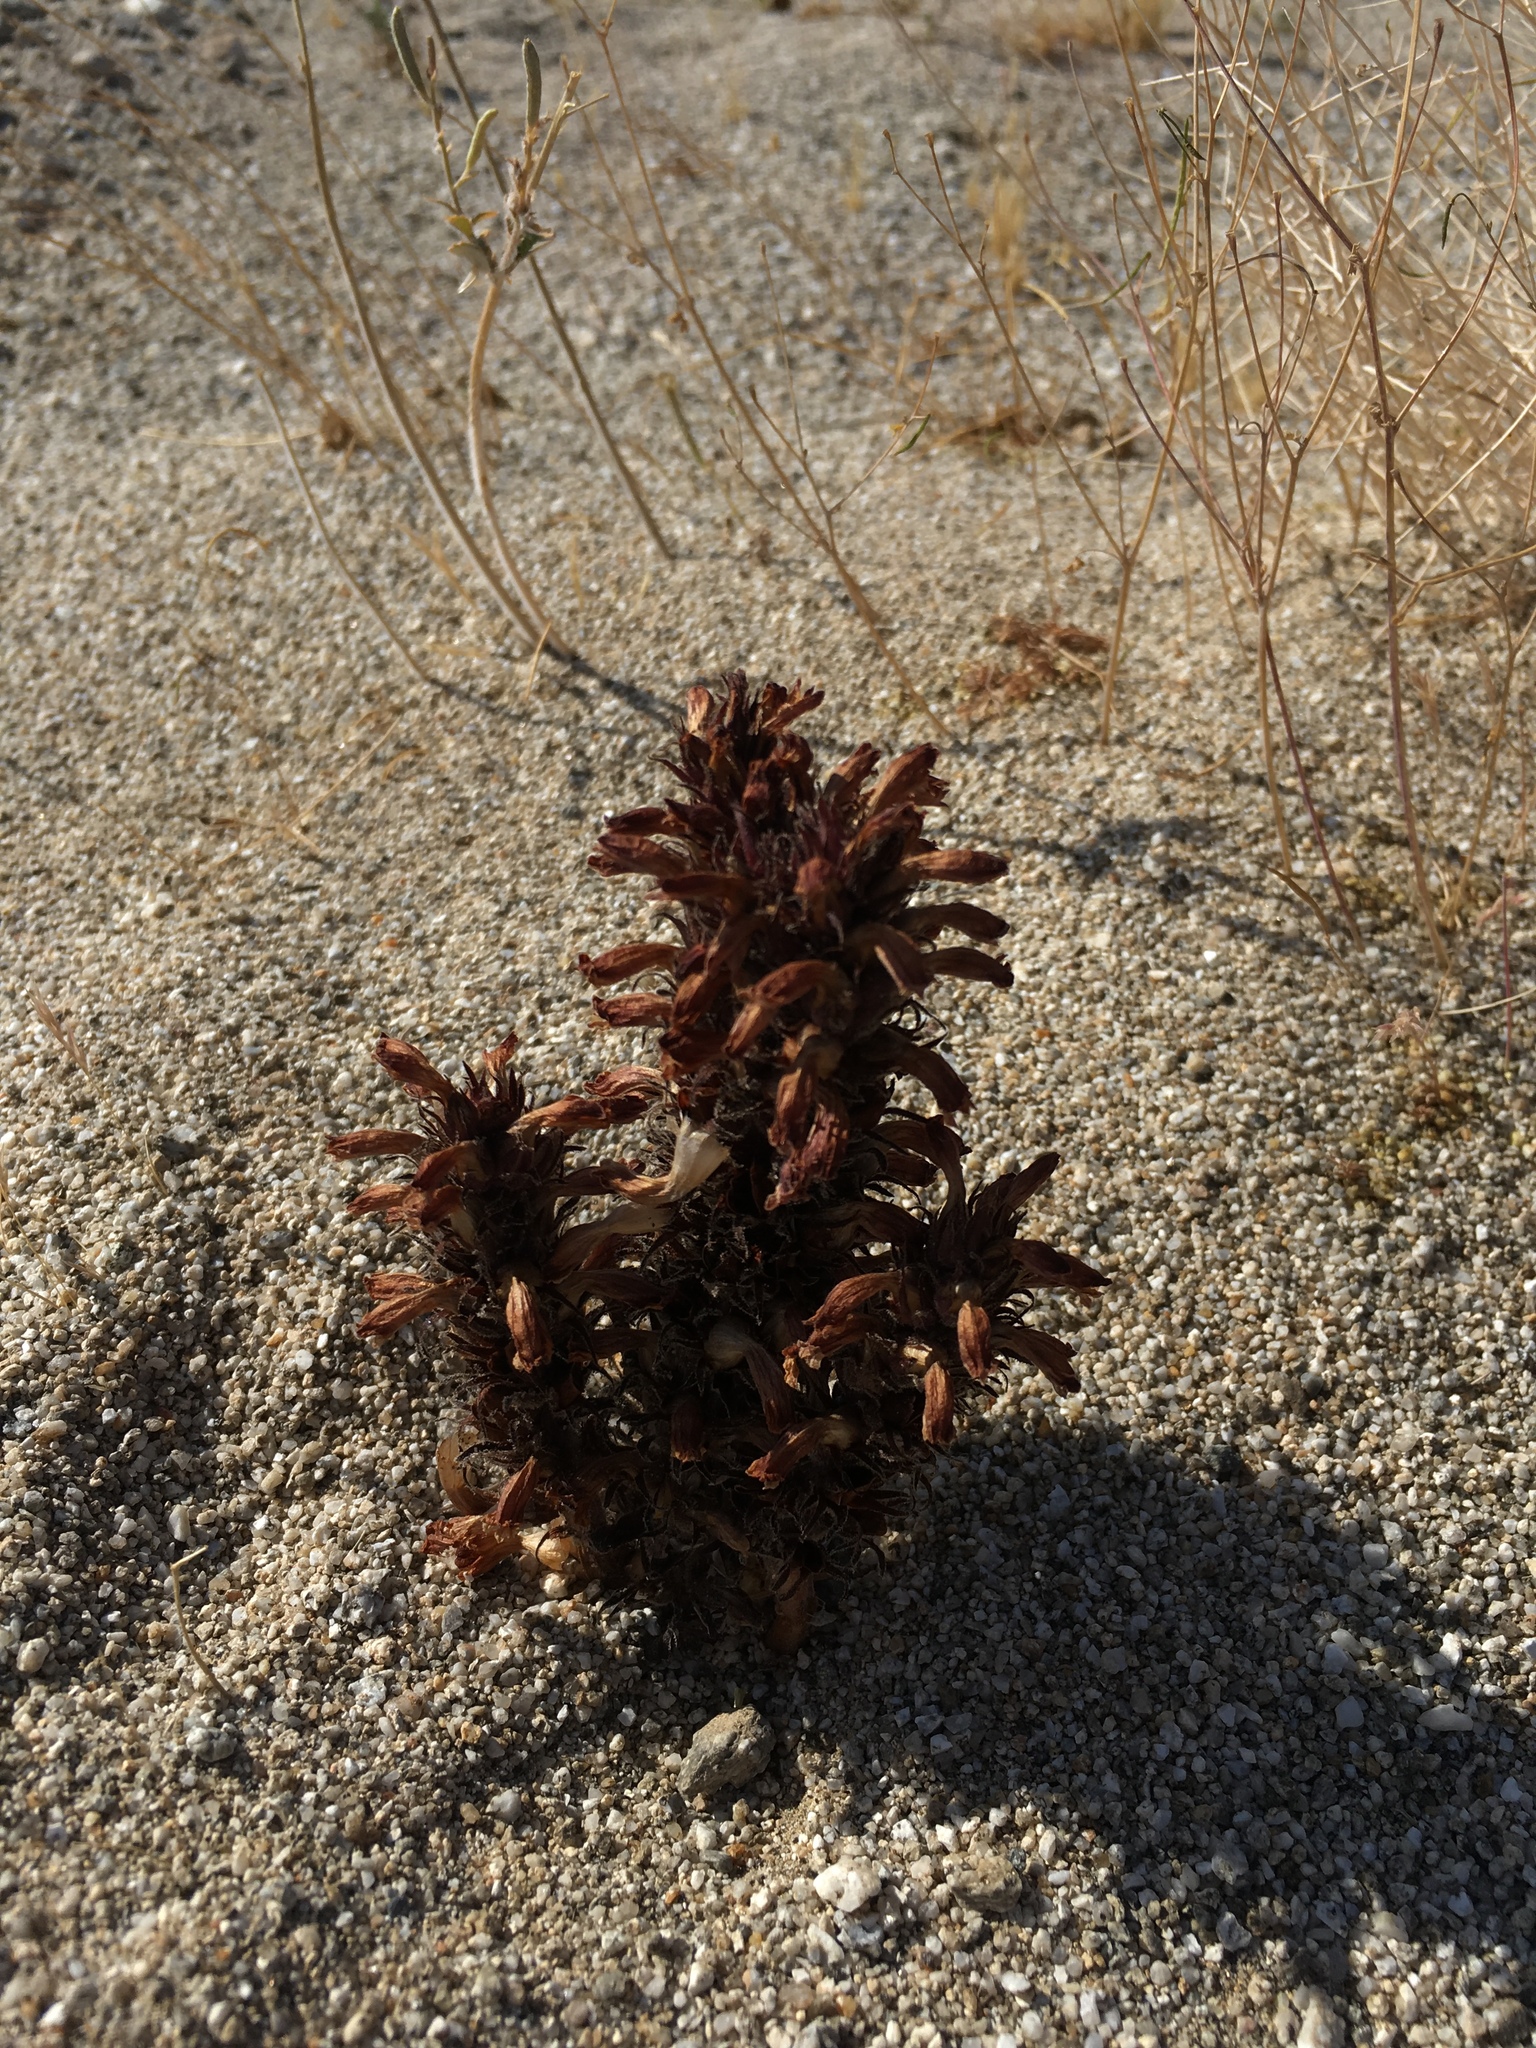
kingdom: Plantae
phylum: Tracheophyta
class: Magnoliopsida
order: Lamiales
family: Orobanchaceae
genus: Aphyllon
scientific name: Aphyllon cooperi
